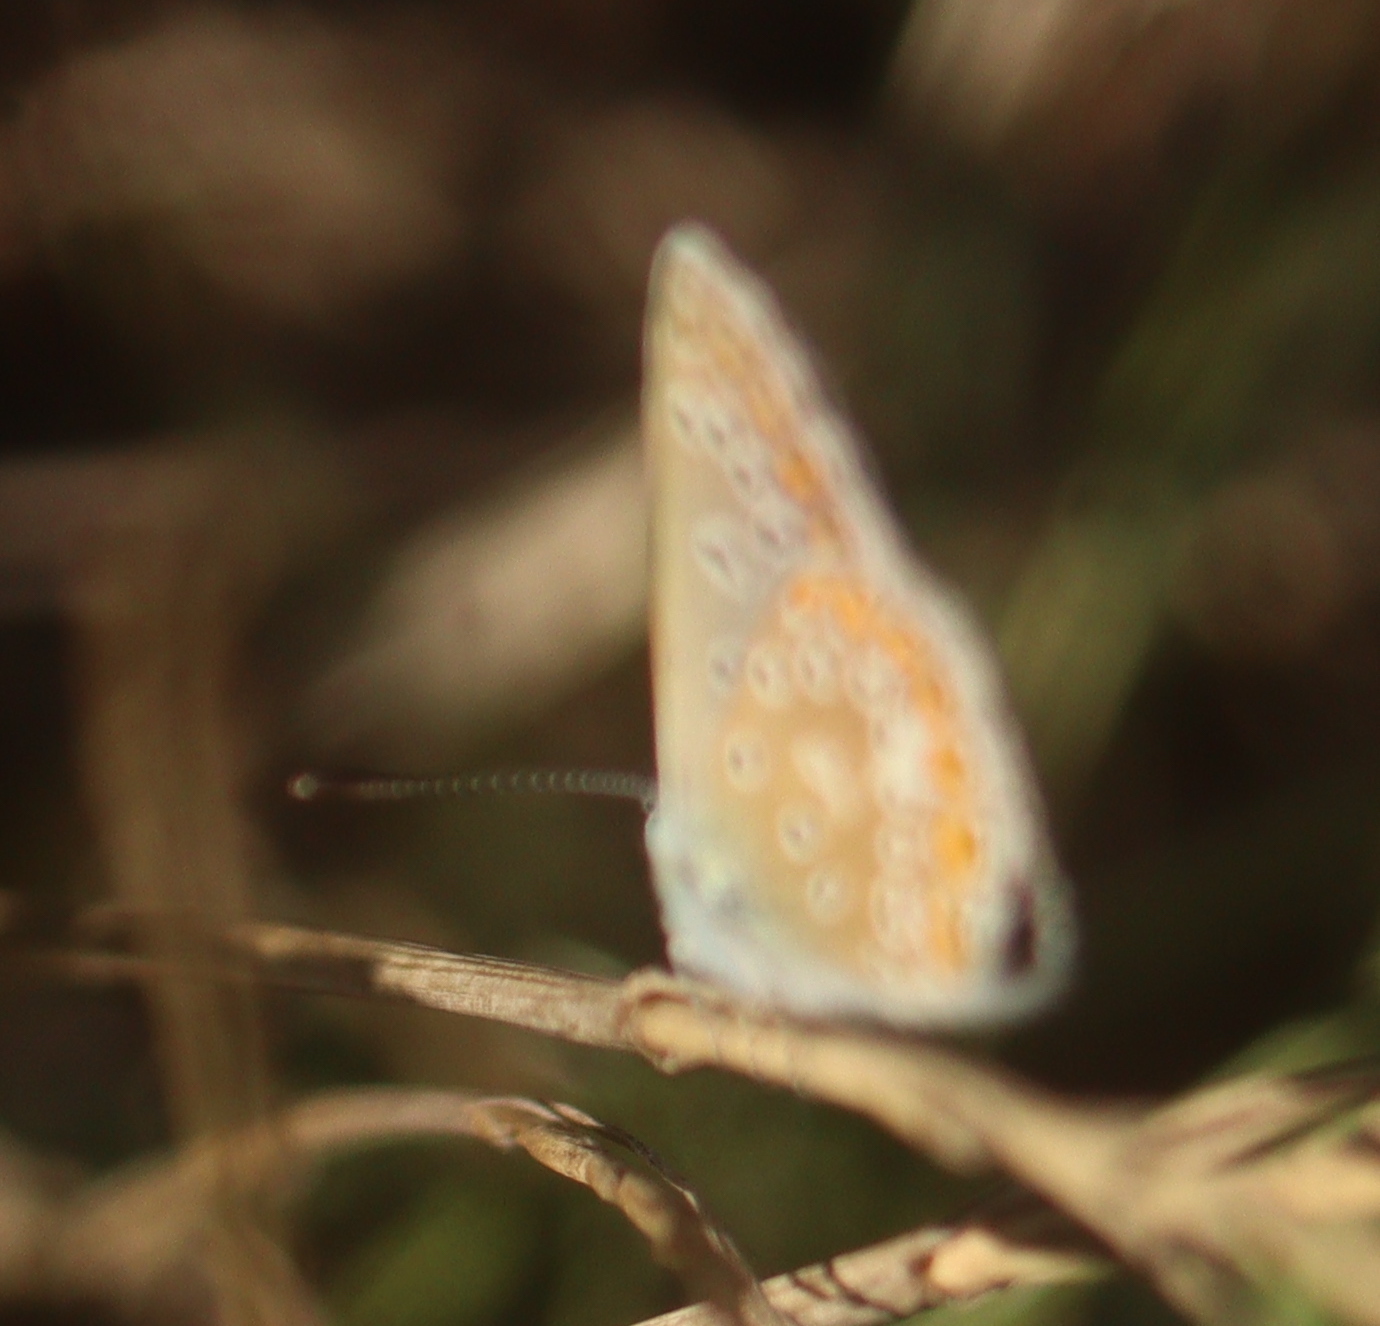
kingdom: Animalia
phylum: Arthropoda
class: Insecta
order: Lepidoptera
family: Lycaenidae
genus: Polyommatus
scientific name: Polyommatus icarus
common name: Common blue
